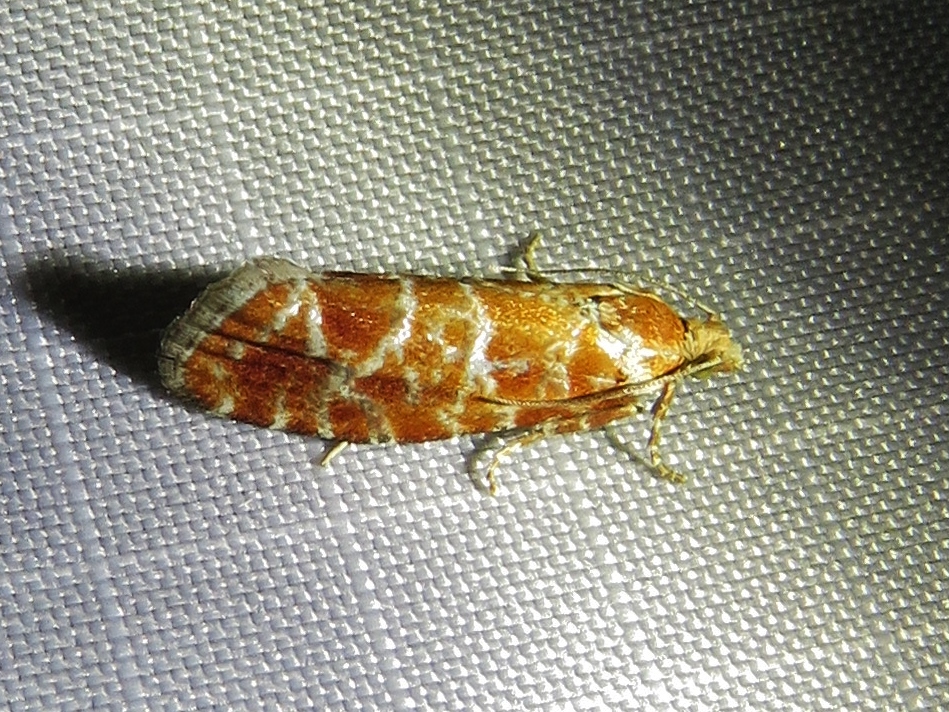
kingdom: Animalia
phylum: Arthropoda
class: Insecta
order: Lepidoptera
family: Tortricidae
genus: Rhyacionia
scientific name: Rhyacionia buoliana
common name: European pine shoot moth
